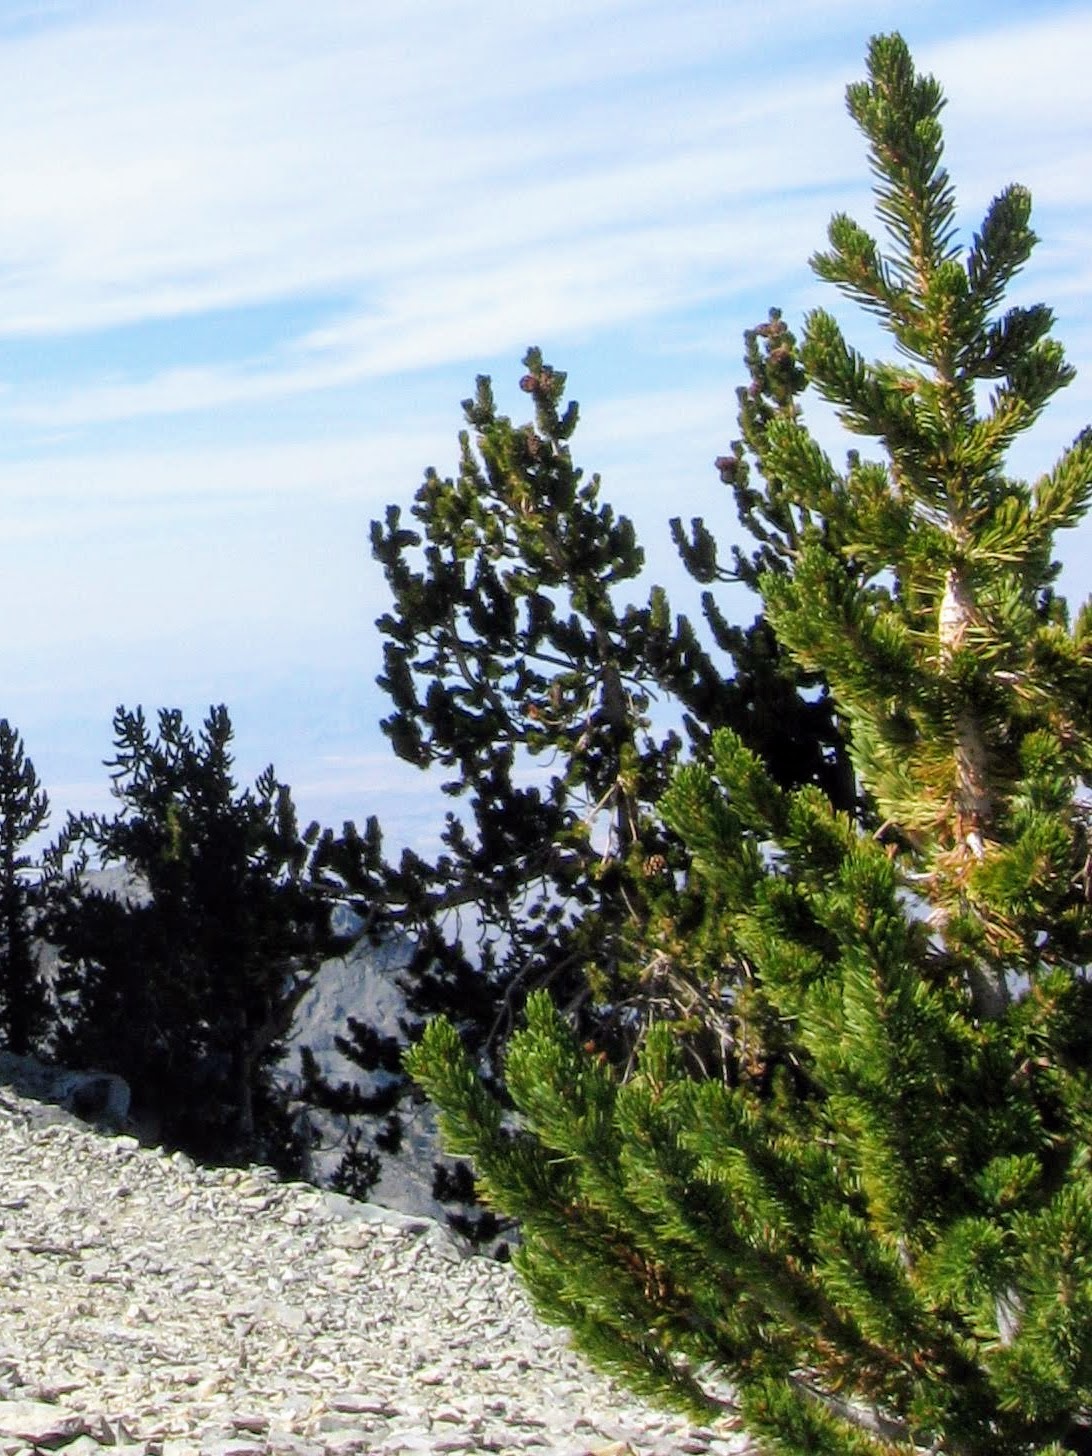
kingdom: Plantae
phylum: Tracheophyta
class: Pinopsida
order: Pinales
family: Pinaceae
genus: Pinus
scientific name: Pinus longaeva
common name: Intermountain bristlecone pine
